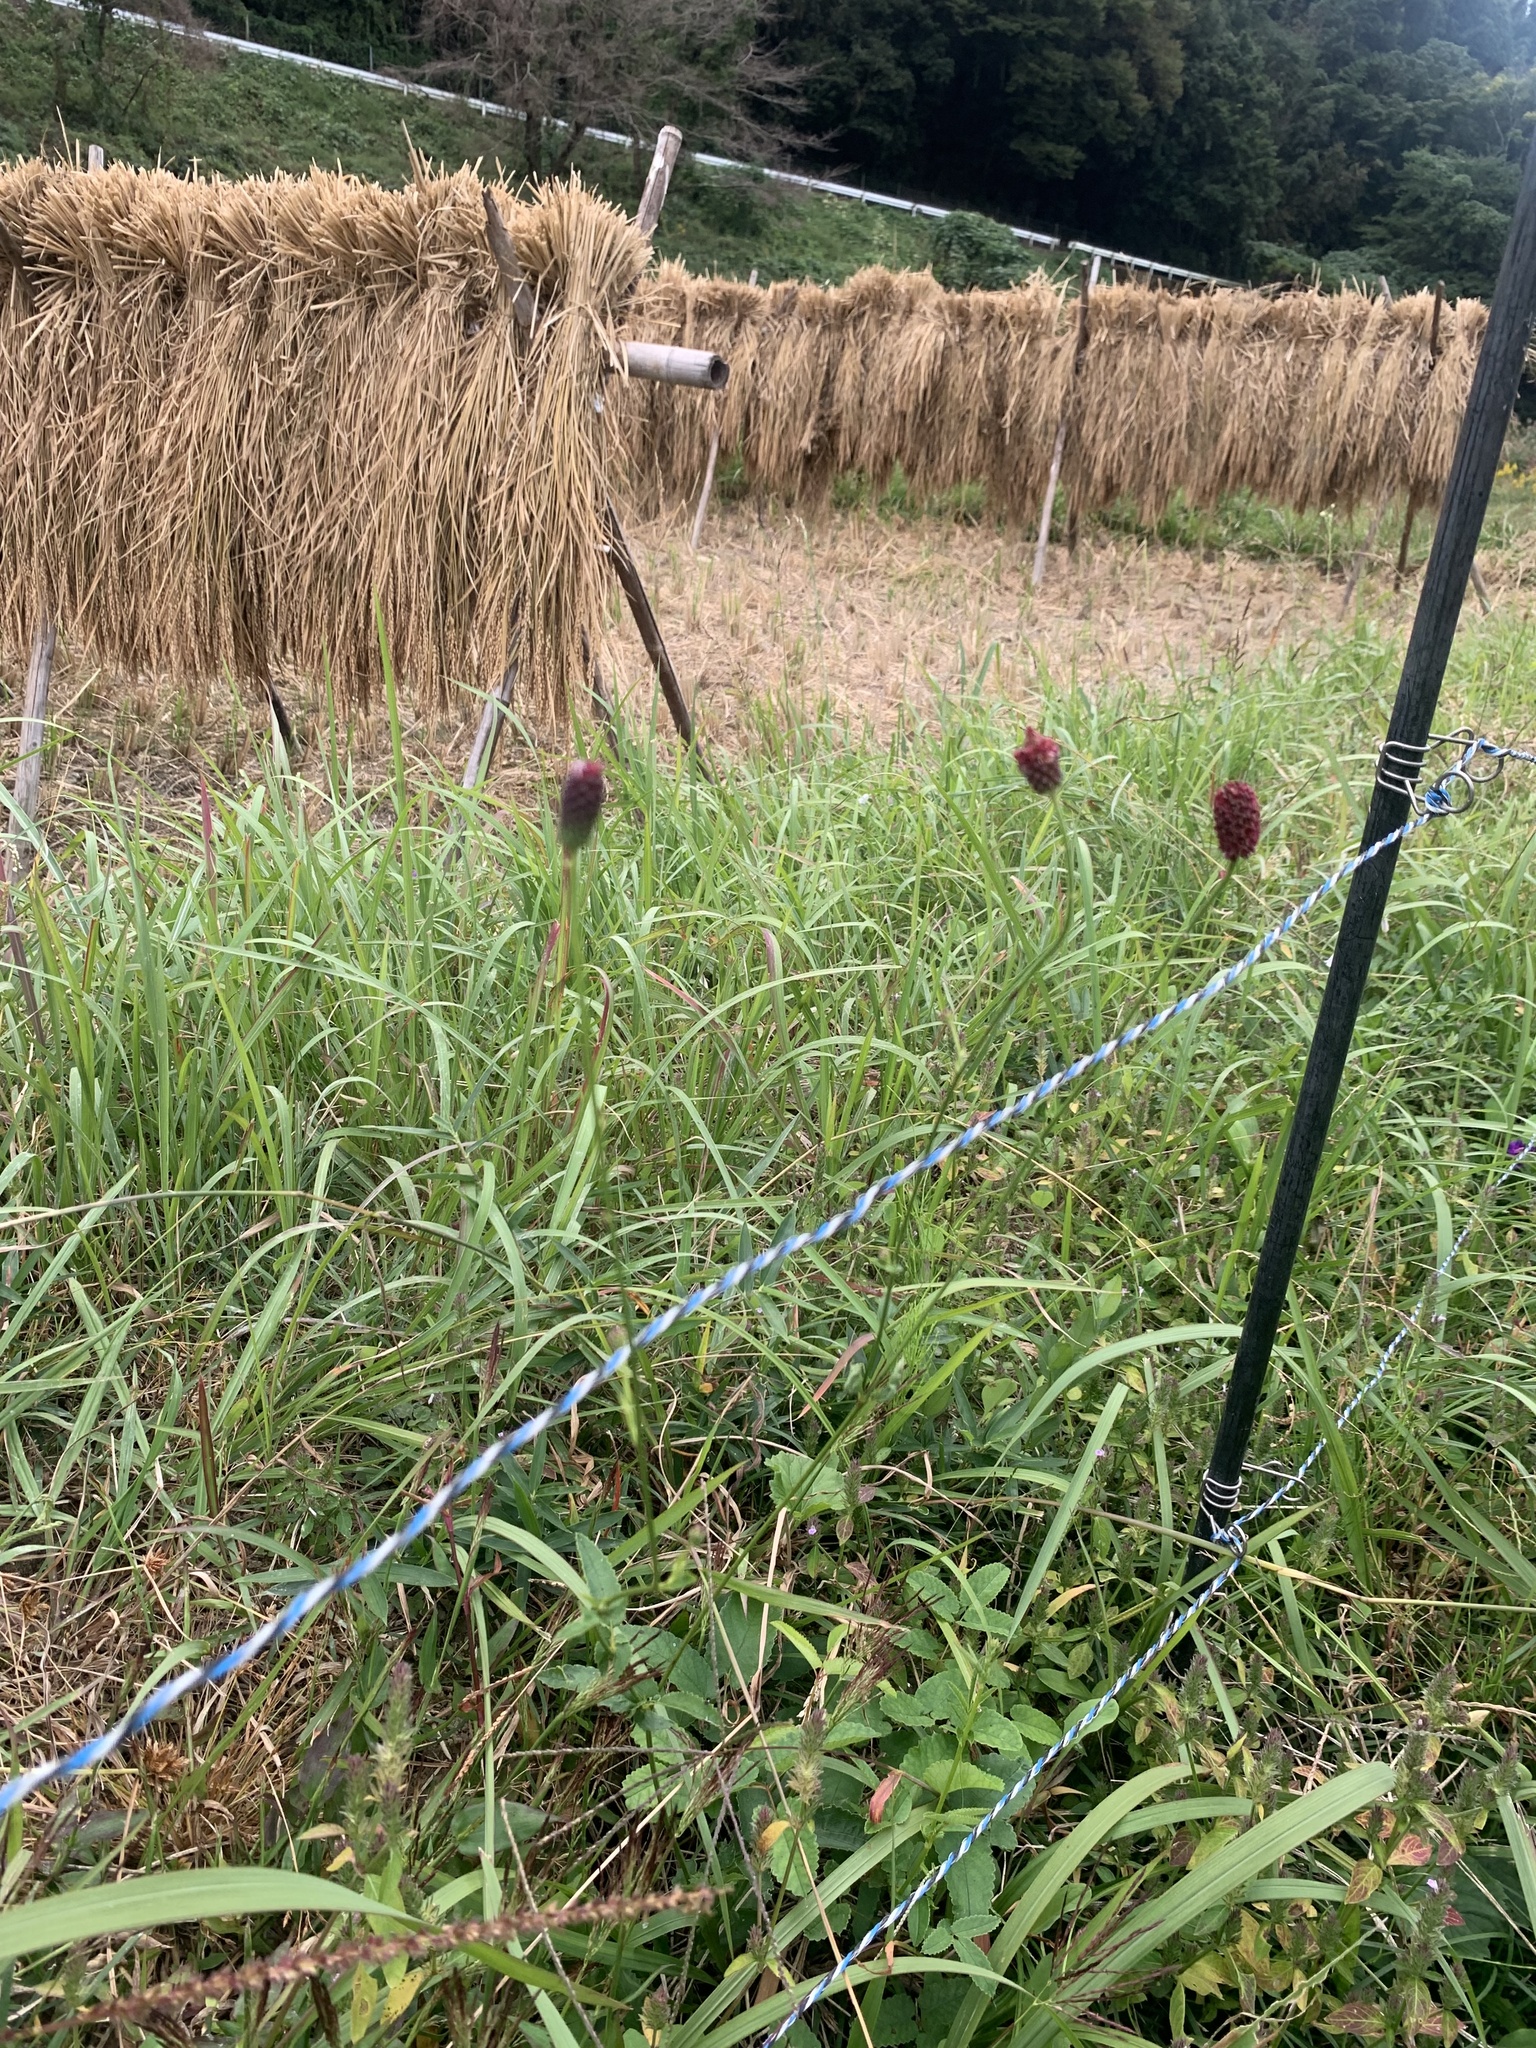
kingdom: Plantae
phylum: Tracheophyta
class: Magnoliopsida
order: Rosales
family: Rosaceae
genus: Sanguisorba
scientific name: Sanguisorba officinalis
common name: Great burnet
